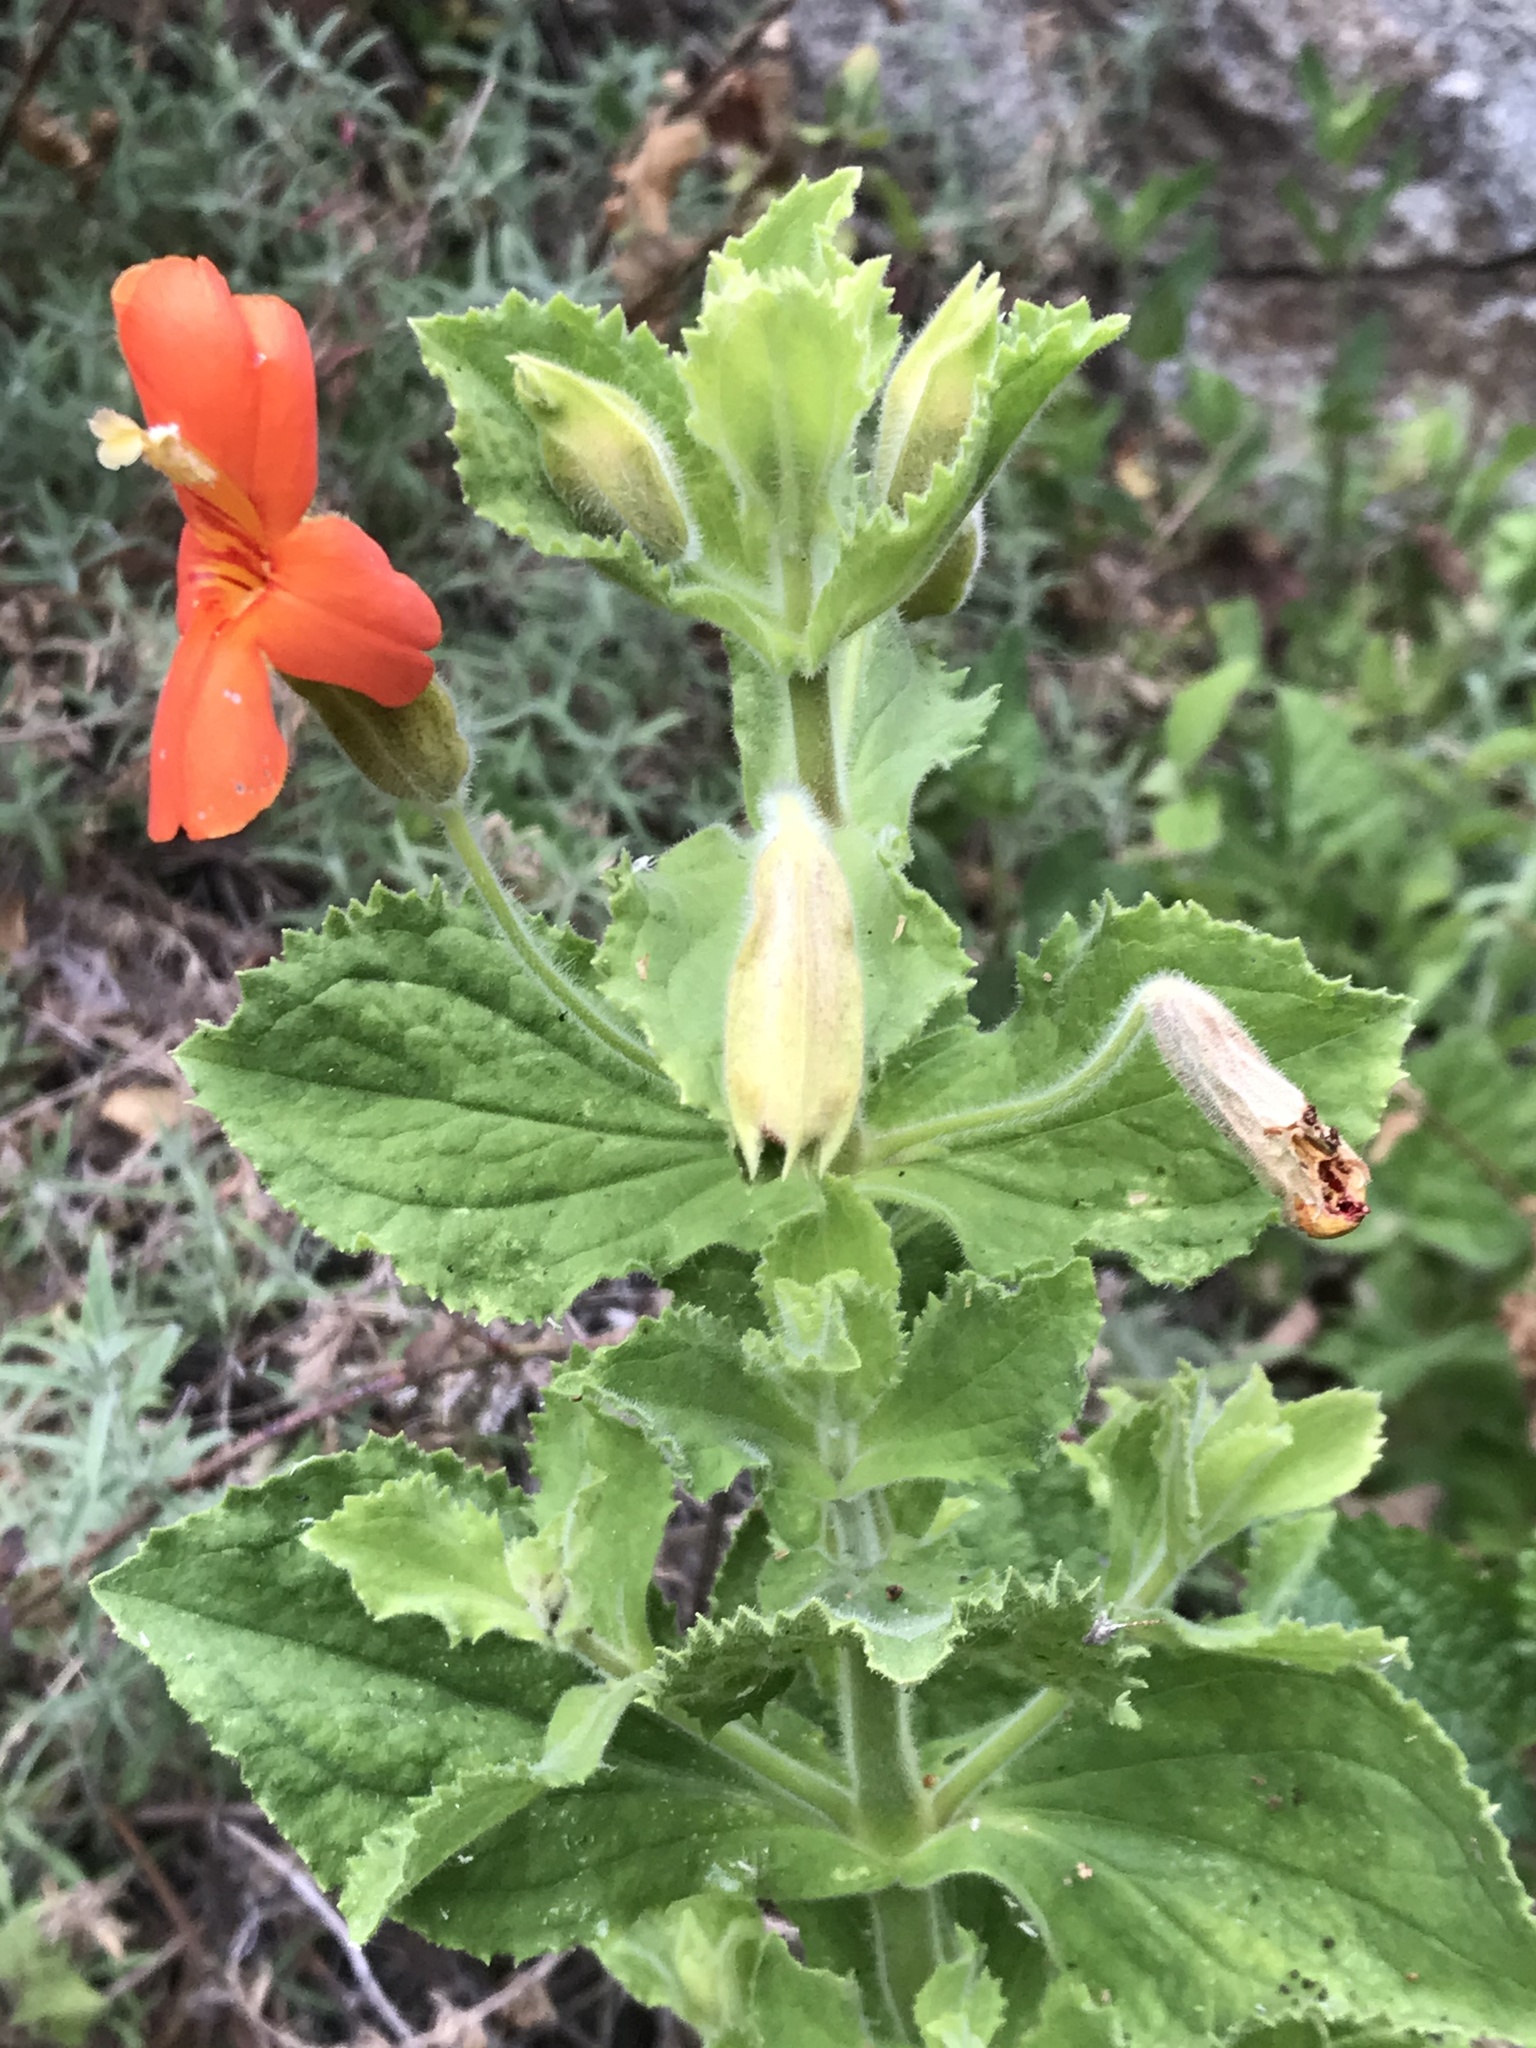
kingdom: Plantae
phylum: Tracheophyta
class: Magnoliopsida
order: Lamiales
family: Phrymaceae
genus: Erythranthe
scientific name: Erythranthe cardinalis
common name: Scarlet monkey-flower
